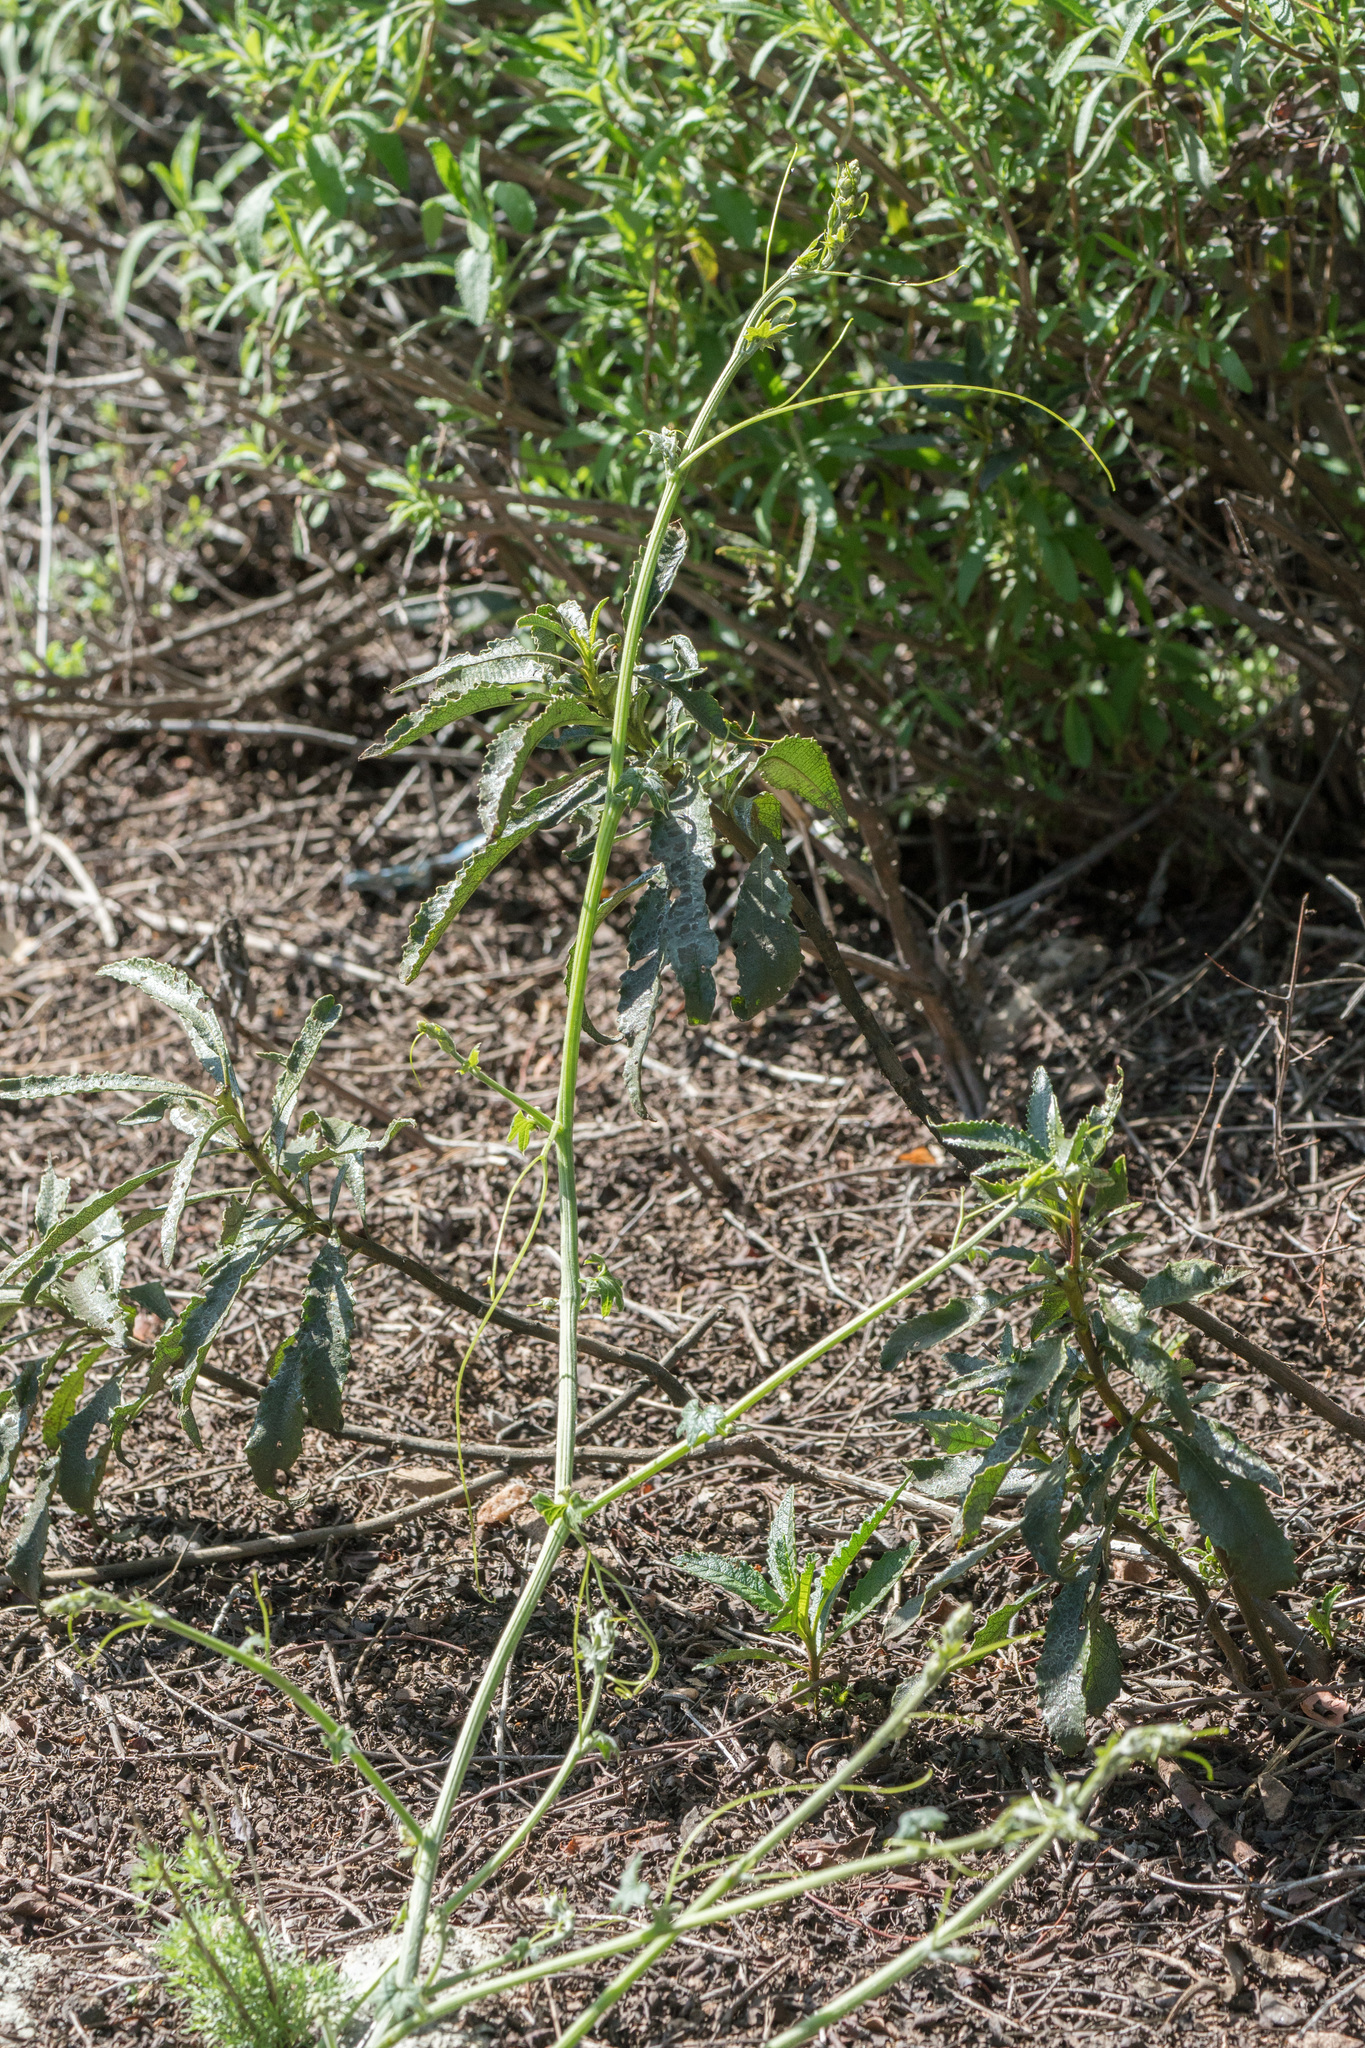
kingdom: Plantae
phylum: Tracheophyta
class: Magnoliopsida
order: Cucurbitales
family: Cucurbitaceae
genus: Marah
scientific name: Marah macrocarpa
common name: Cucamonga manroot
